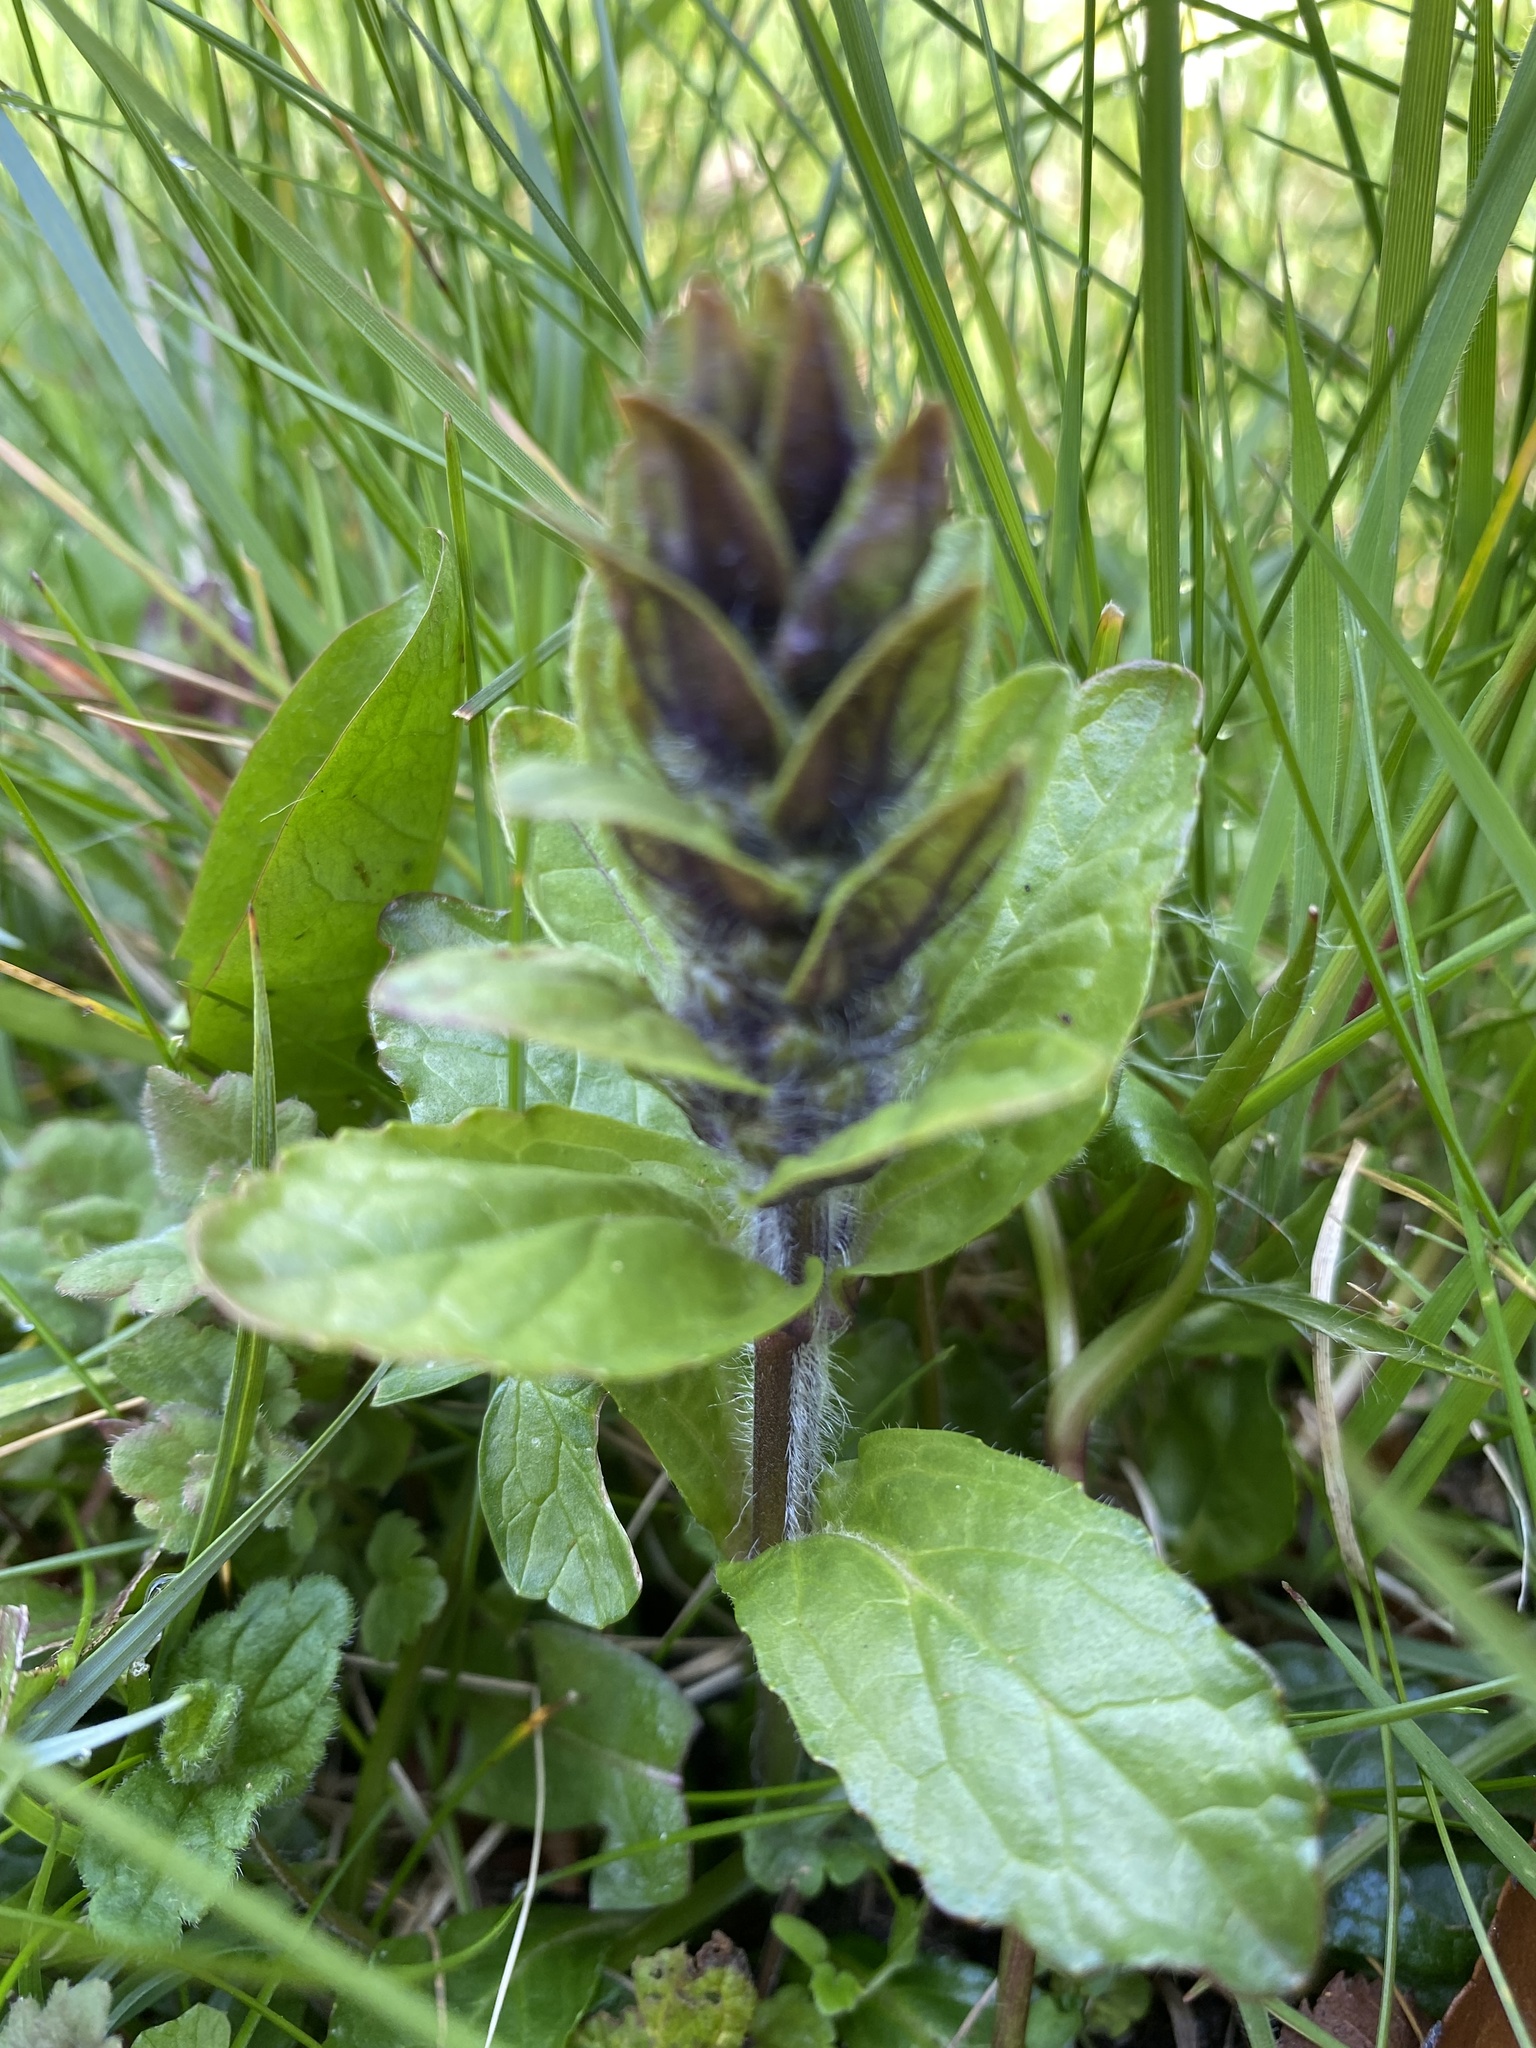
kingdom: Plantae
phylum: Tracheophyta
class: Magnoliopsida
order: Lamiales
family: Lamiaceae
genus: Ajuga
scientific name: Ajuga reptans
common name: Bugle
